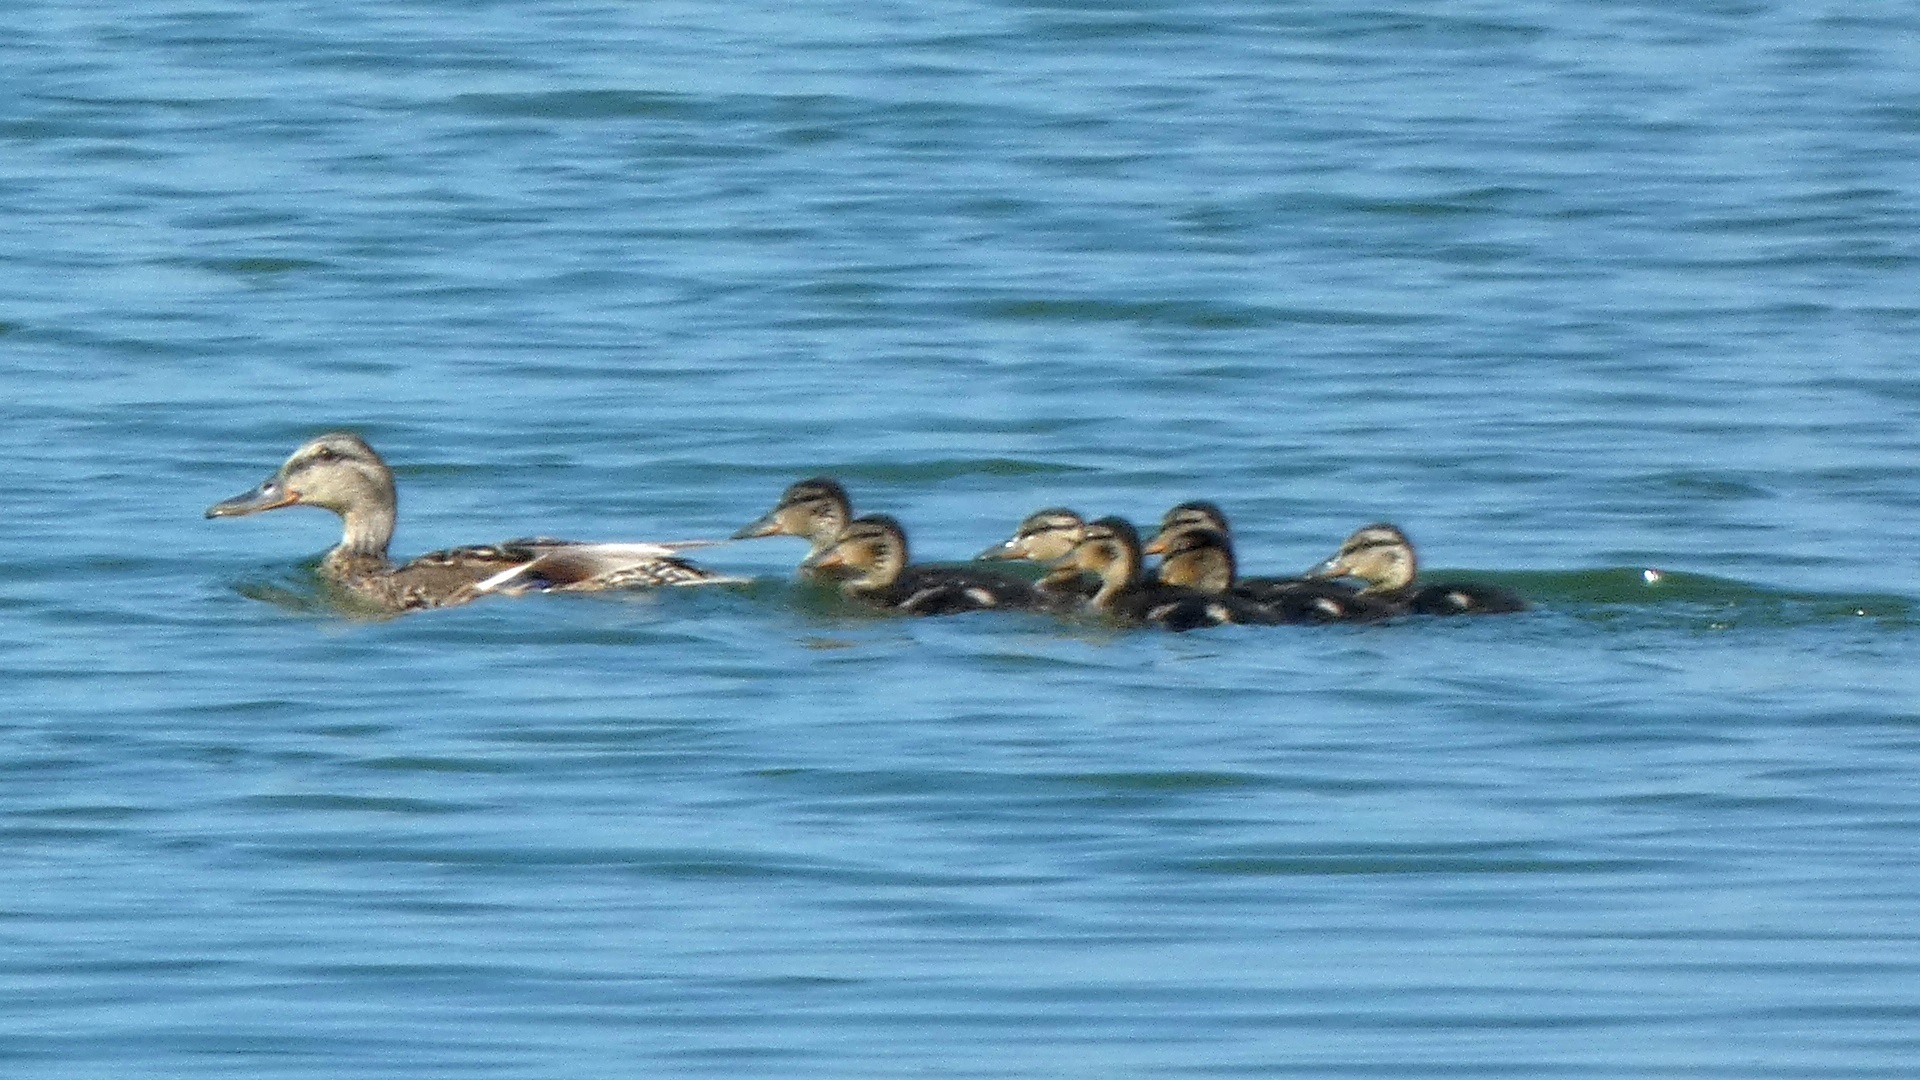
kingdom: Animalia
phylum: Chordata
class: Aves
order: Anseriformes
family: Anatidae
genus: Anas
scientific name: Anas platyrhynchos
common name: Mallard
